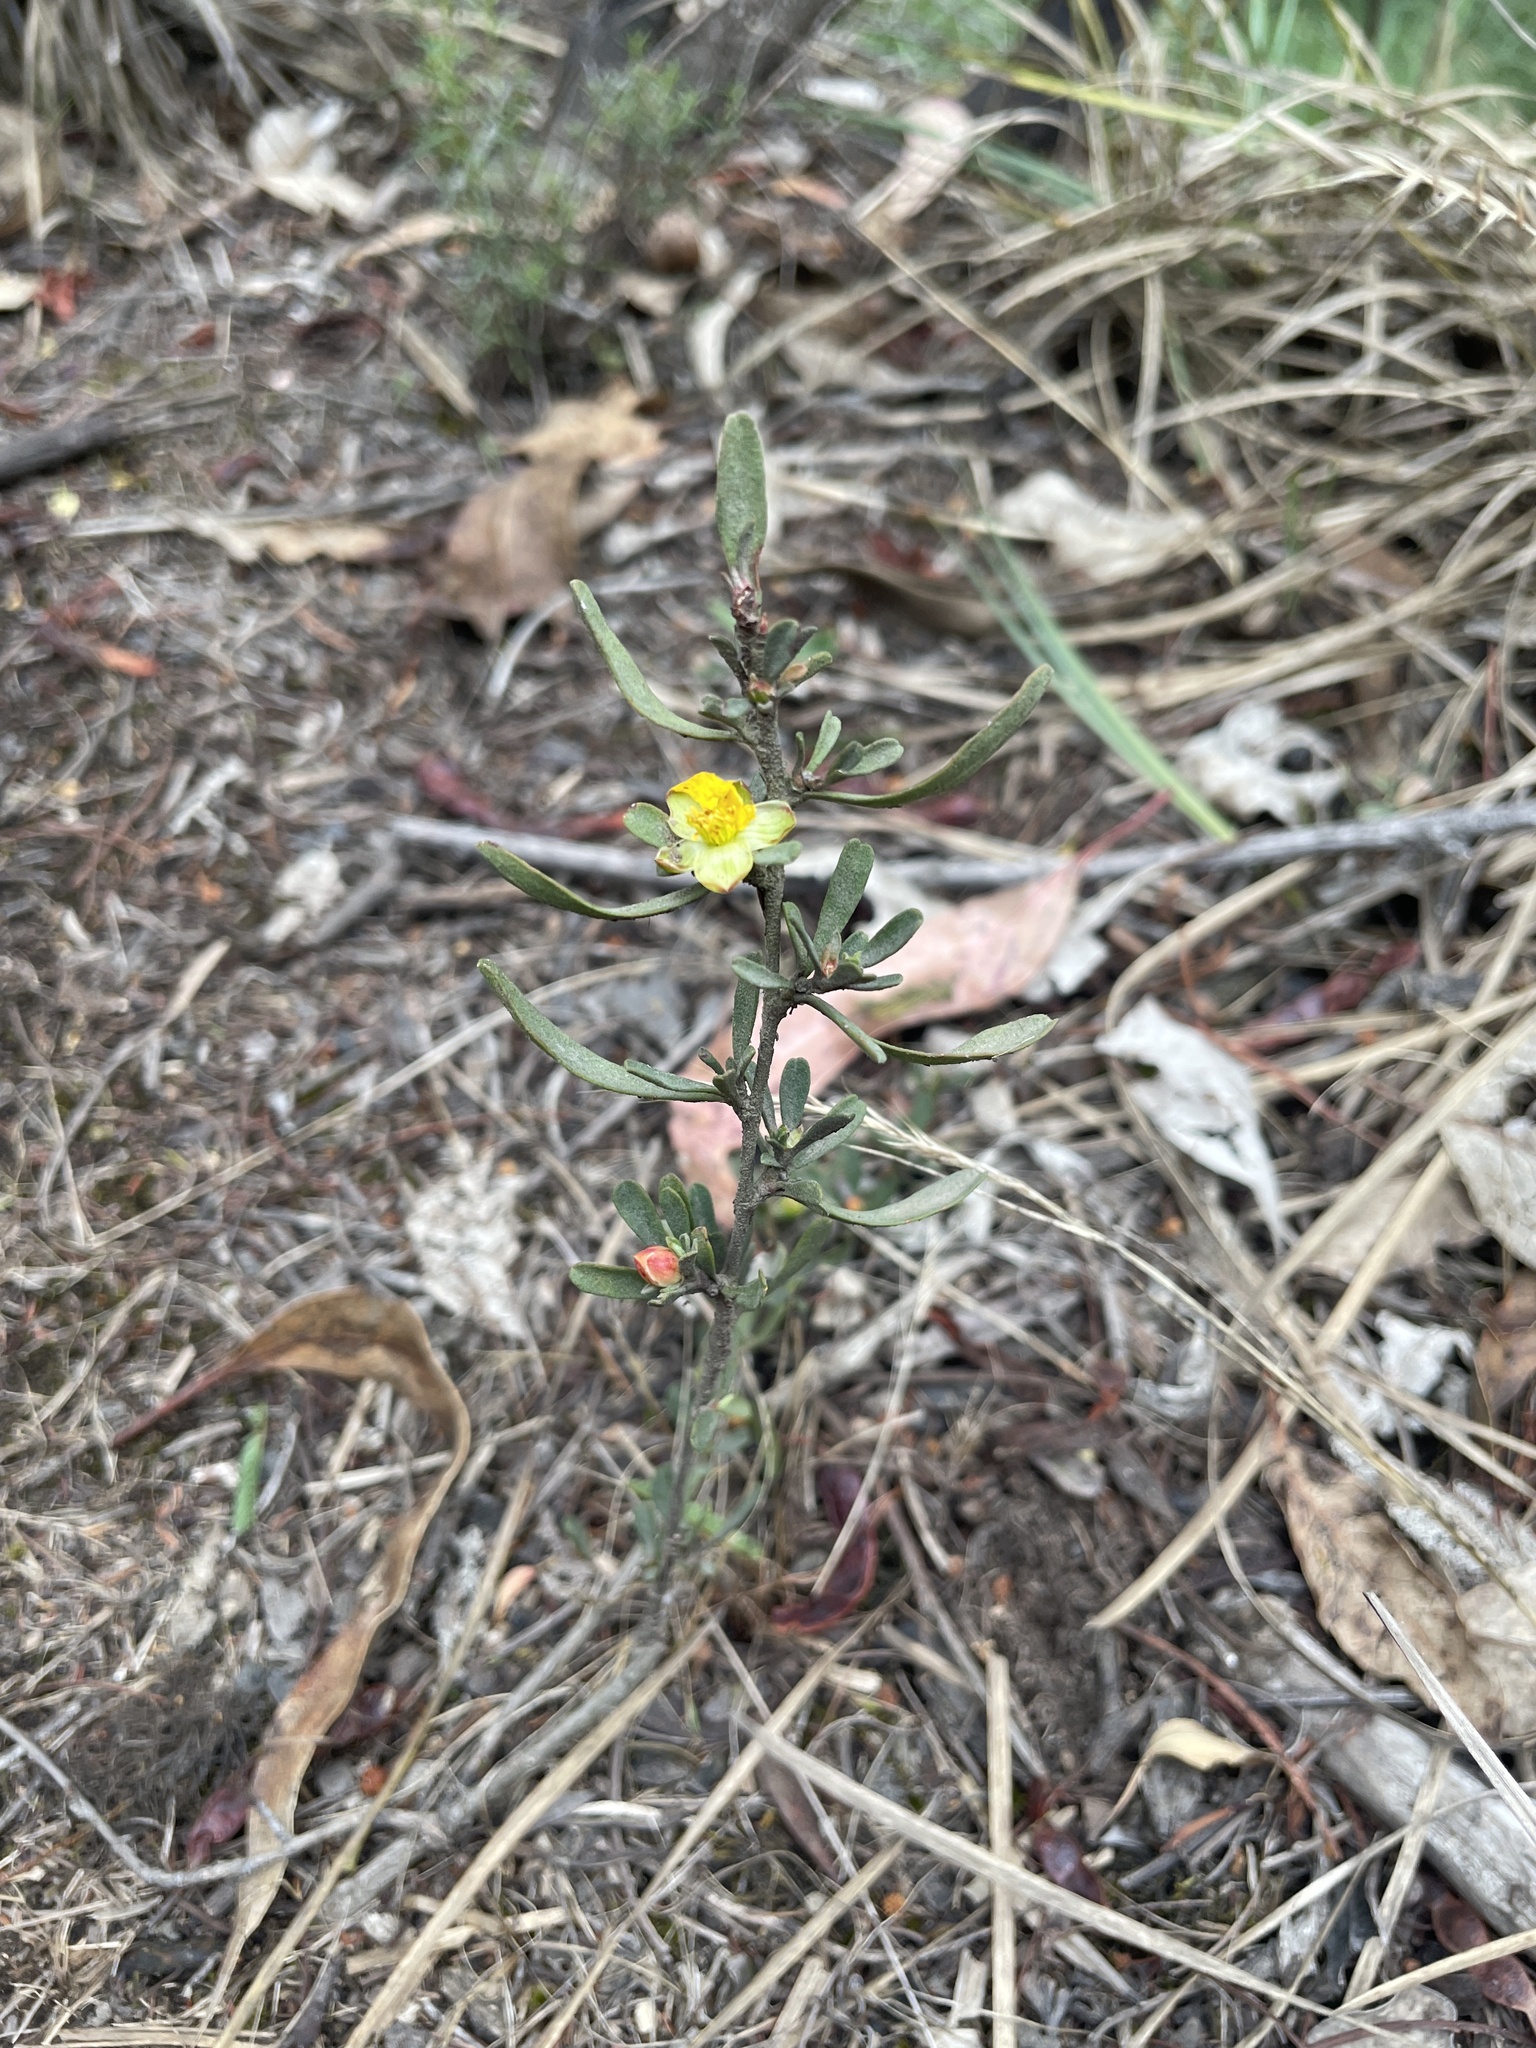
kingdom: Plantae
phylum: Tracheophyta
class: Magnoliopsida
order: Dilleniales
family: Dilleniaceae
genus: Hibbertia
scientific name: Hibbertia obtusifolia
